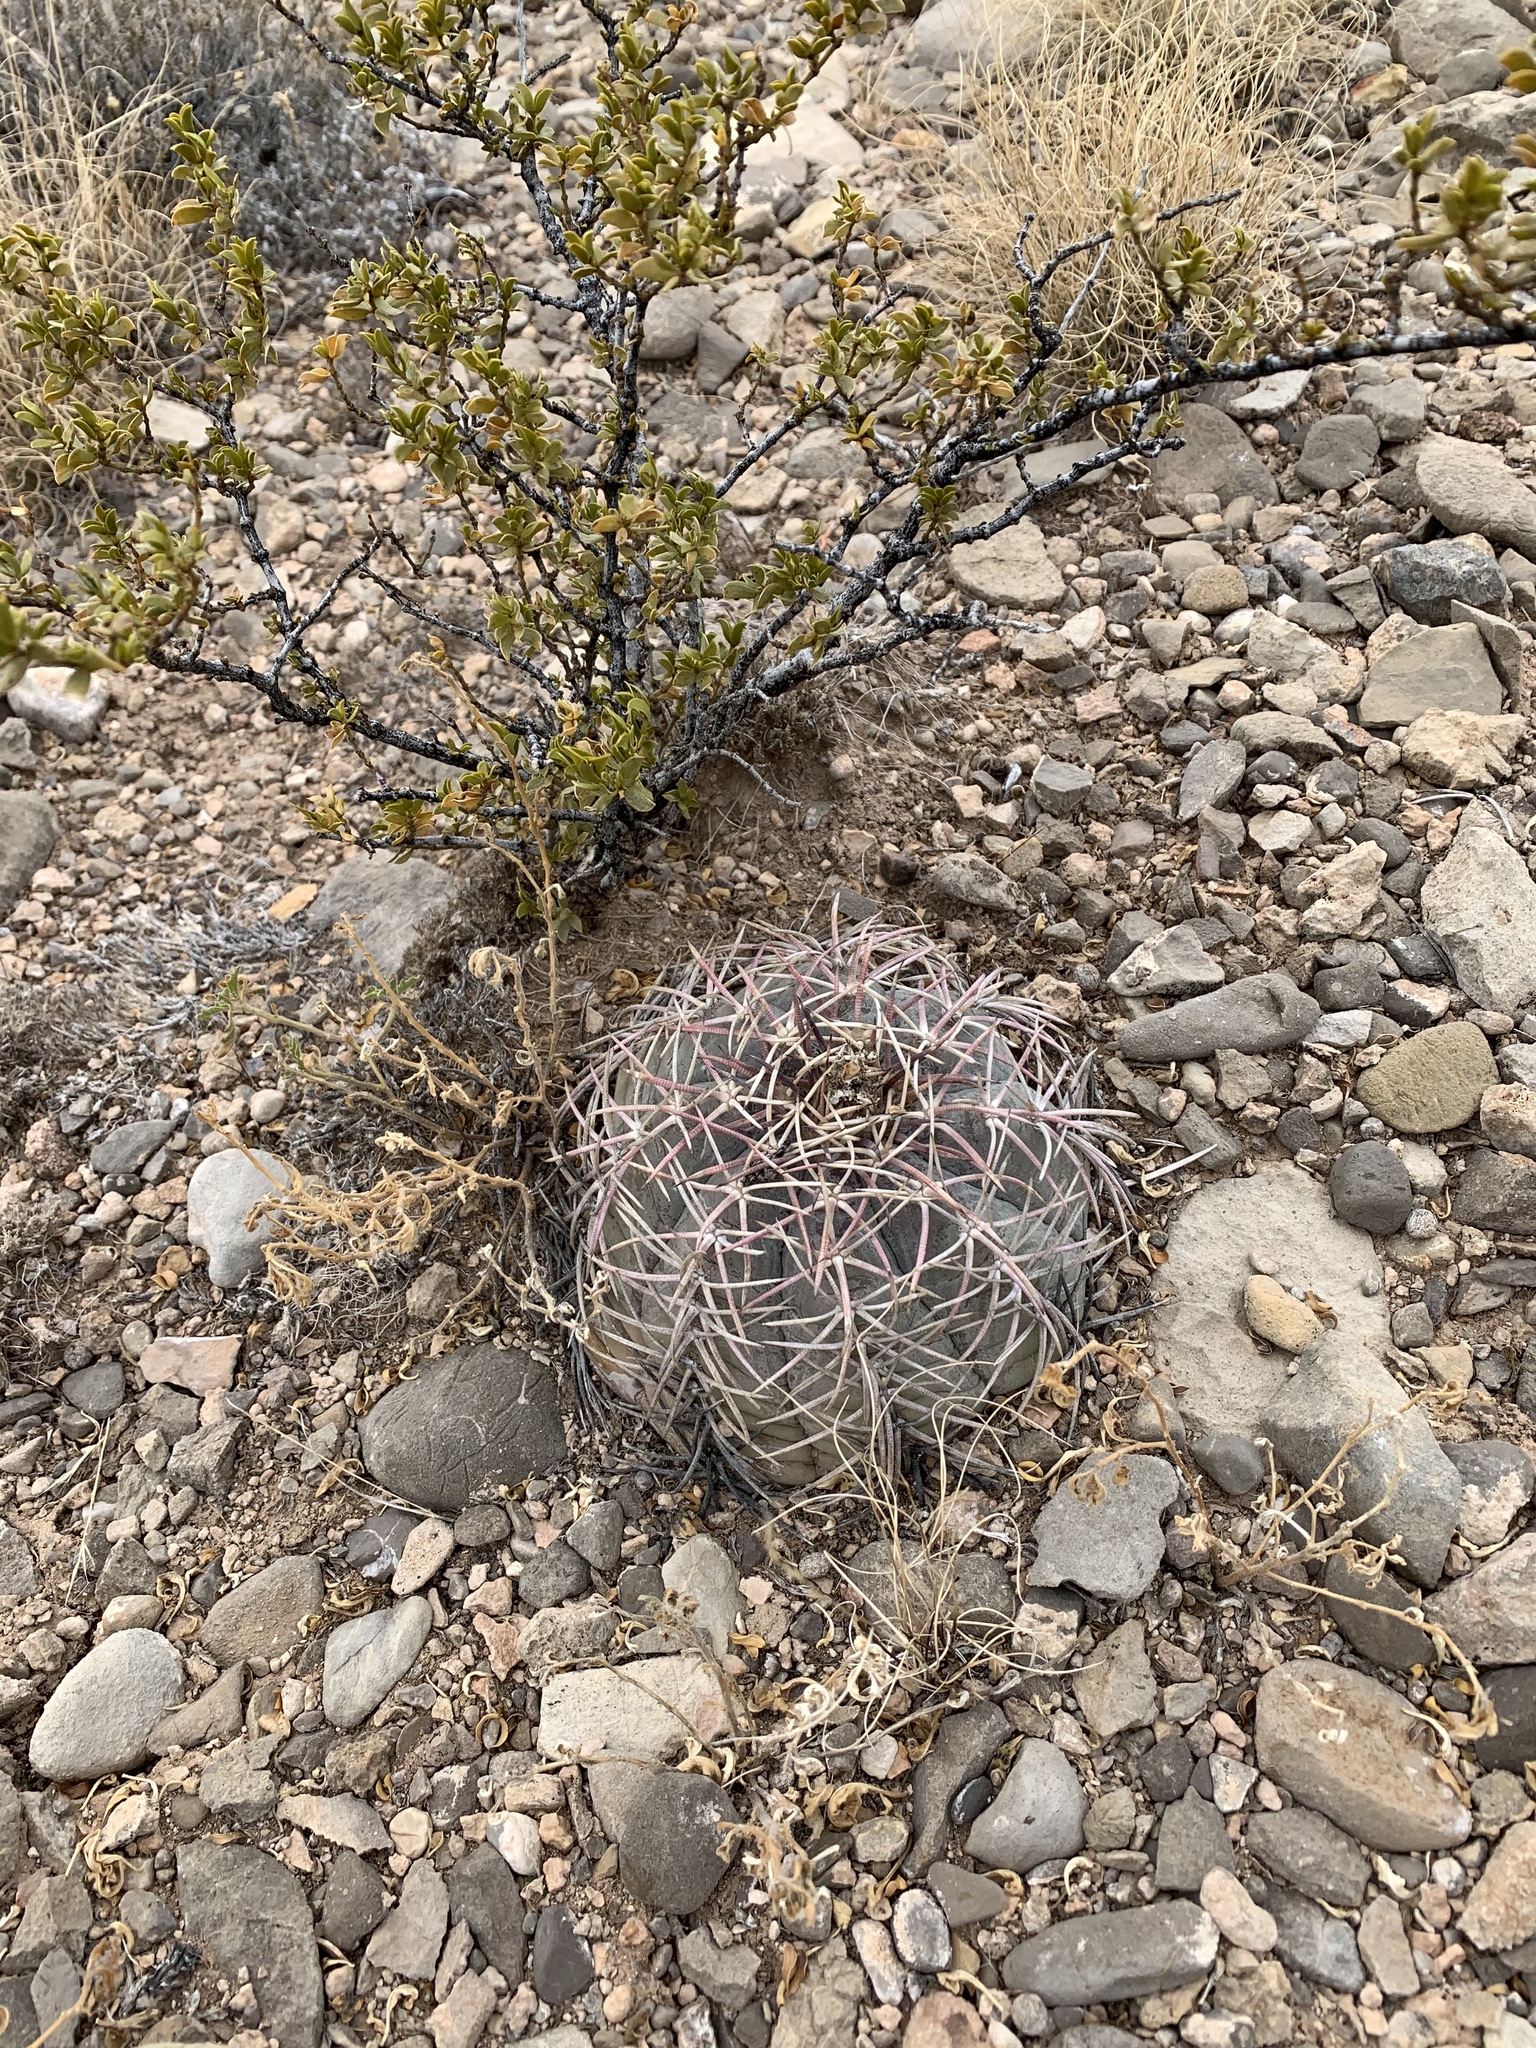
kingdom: Plantae
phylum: Tracheophyta
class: Magnoliopsida
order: Caryophyllales
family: Cactaceae
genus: Echinocactus
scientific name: Echinocactus horizonthalonius
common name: Devilshead
